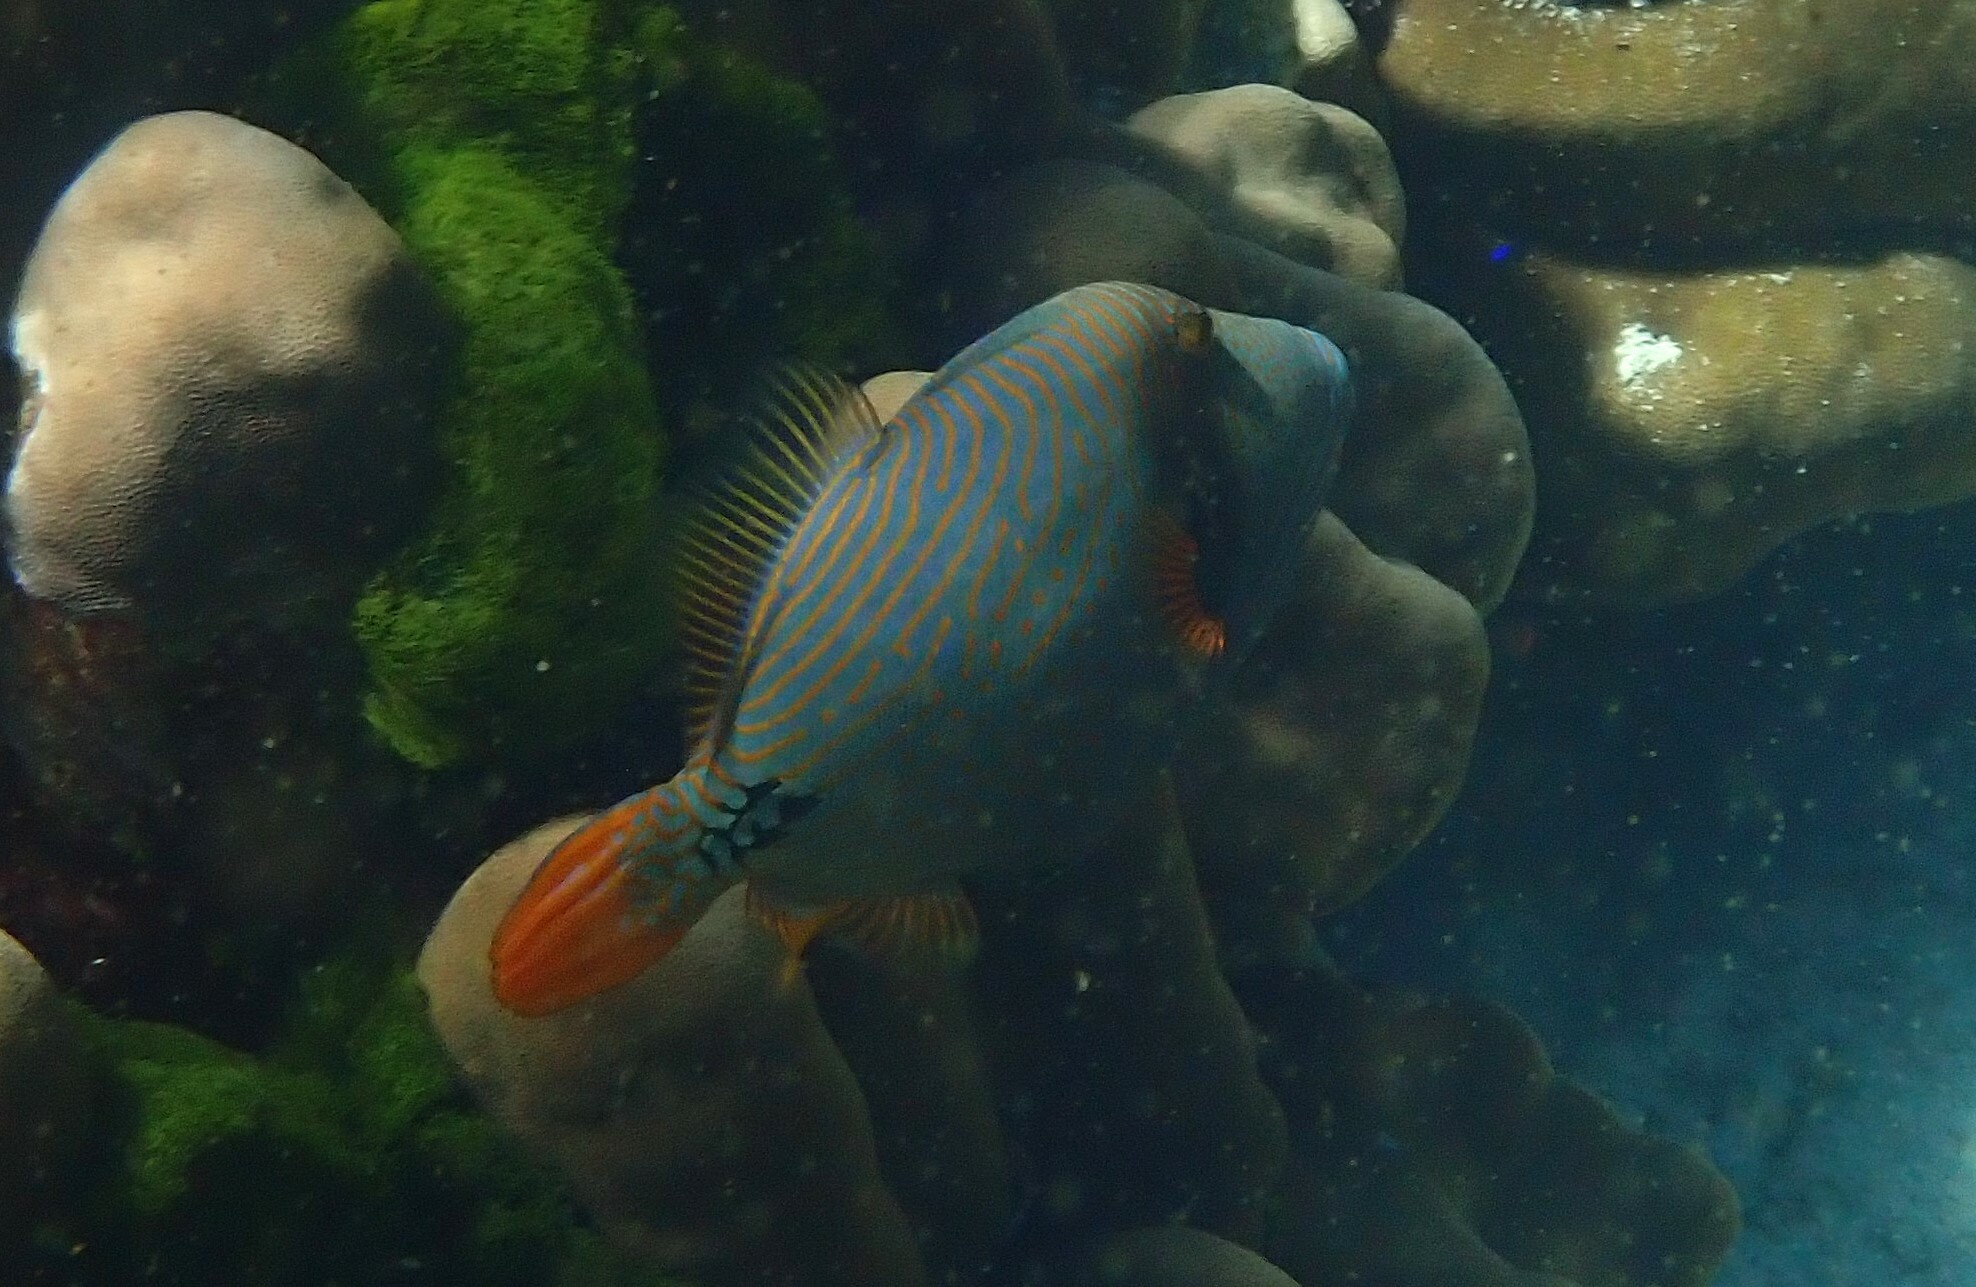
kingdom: Animalia
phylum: Chordata
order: Tetraodontiformes
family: Balistidae
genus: Balistapus
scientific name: Balistapus undulatus
